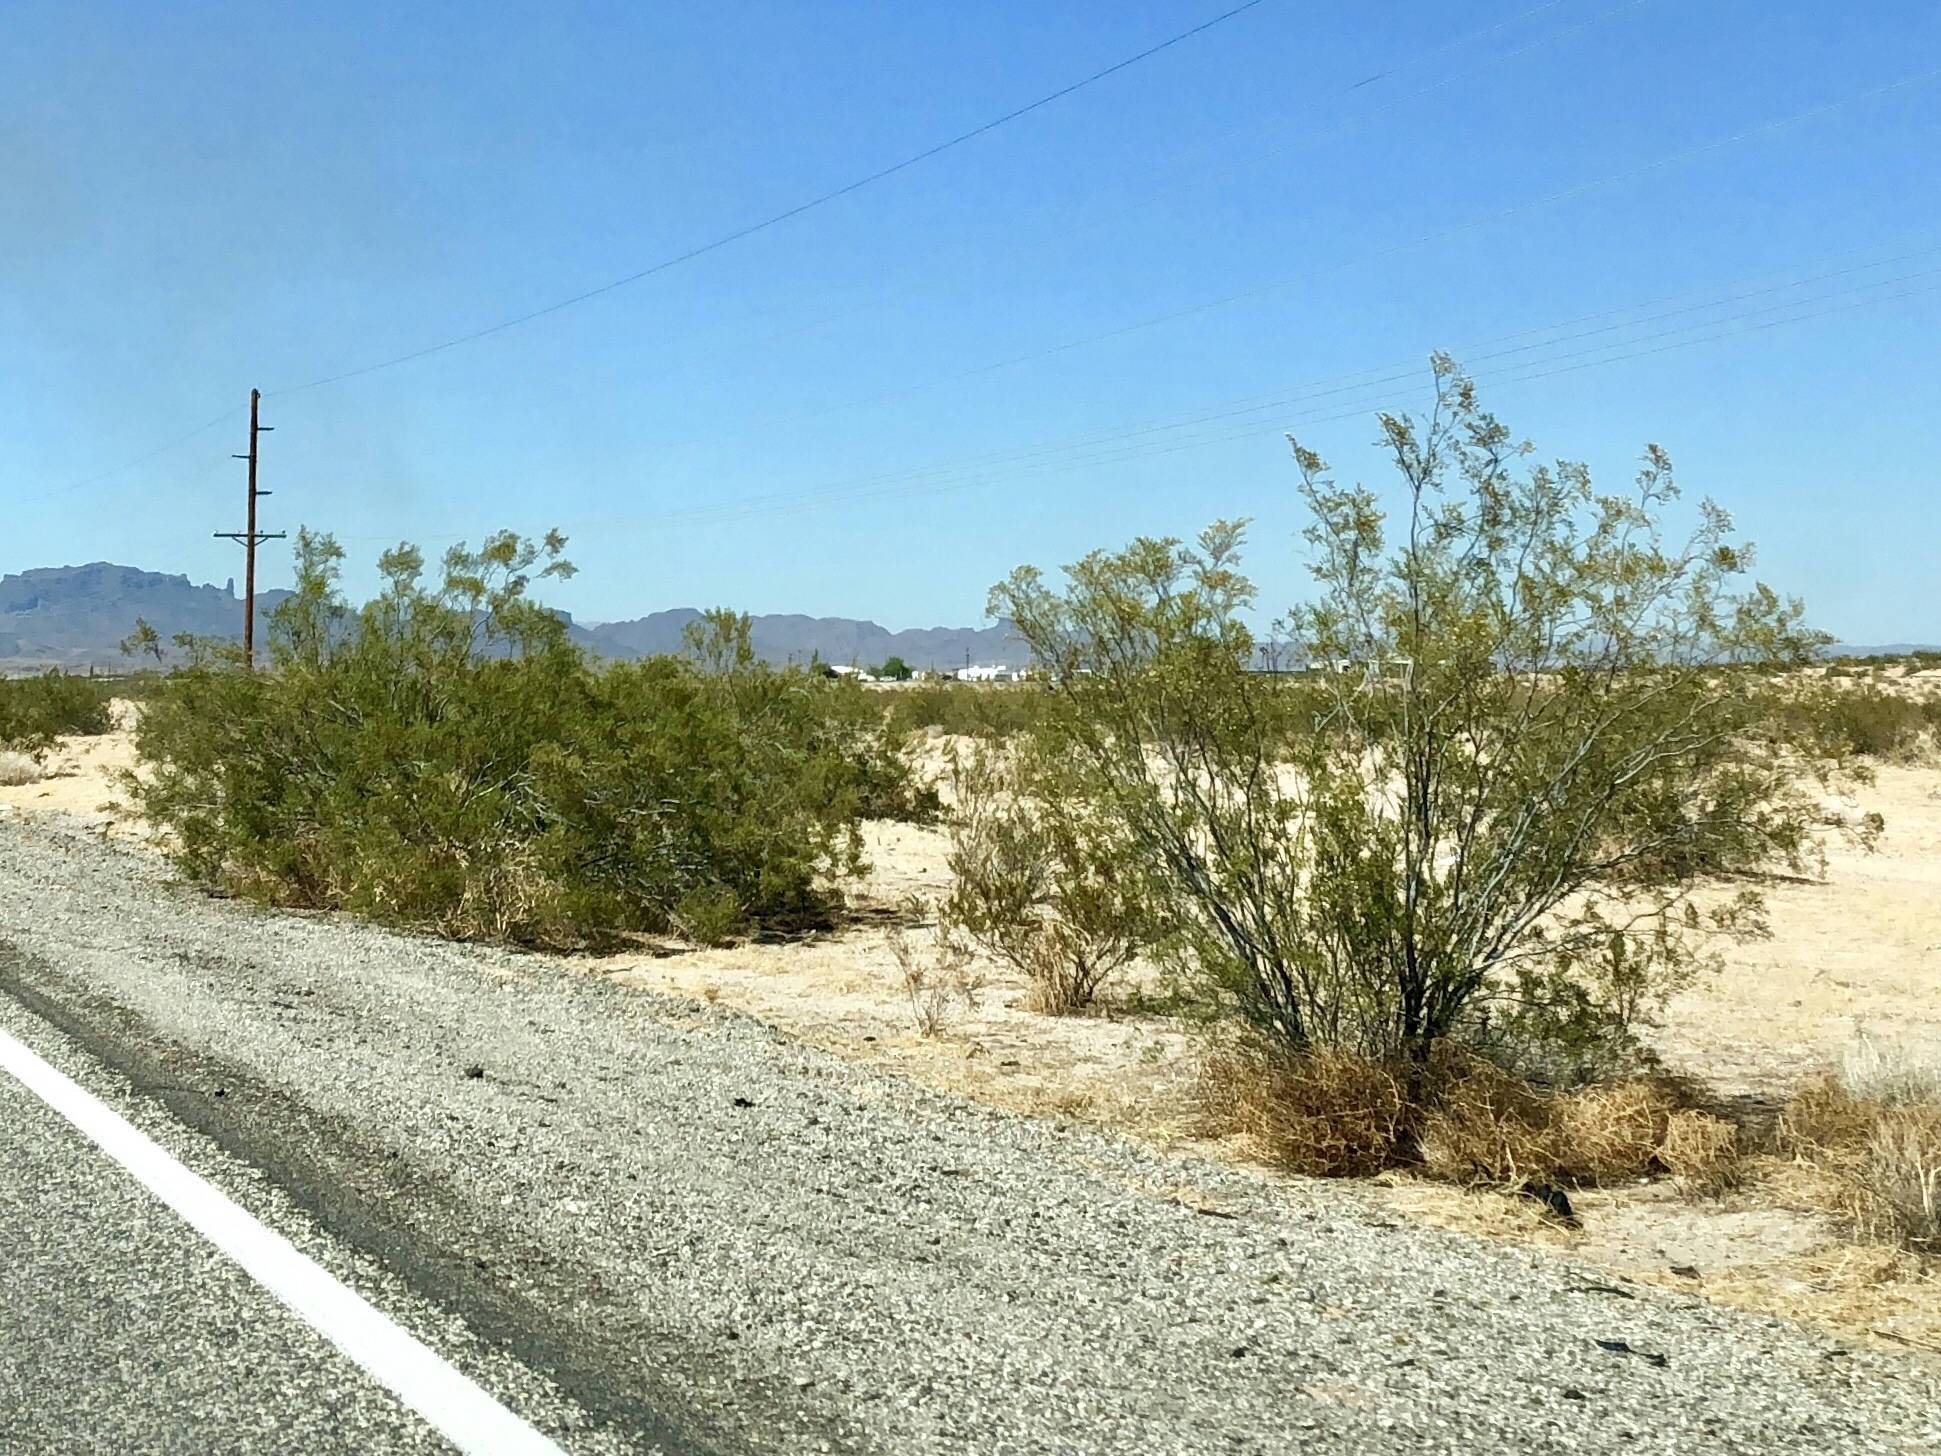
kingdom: Plantae
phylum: Tracheophyta
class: Magnoliopsida
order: Zygophyllales
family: Zygophyllaceae
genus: Larrea
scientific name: Larrea tridentata
